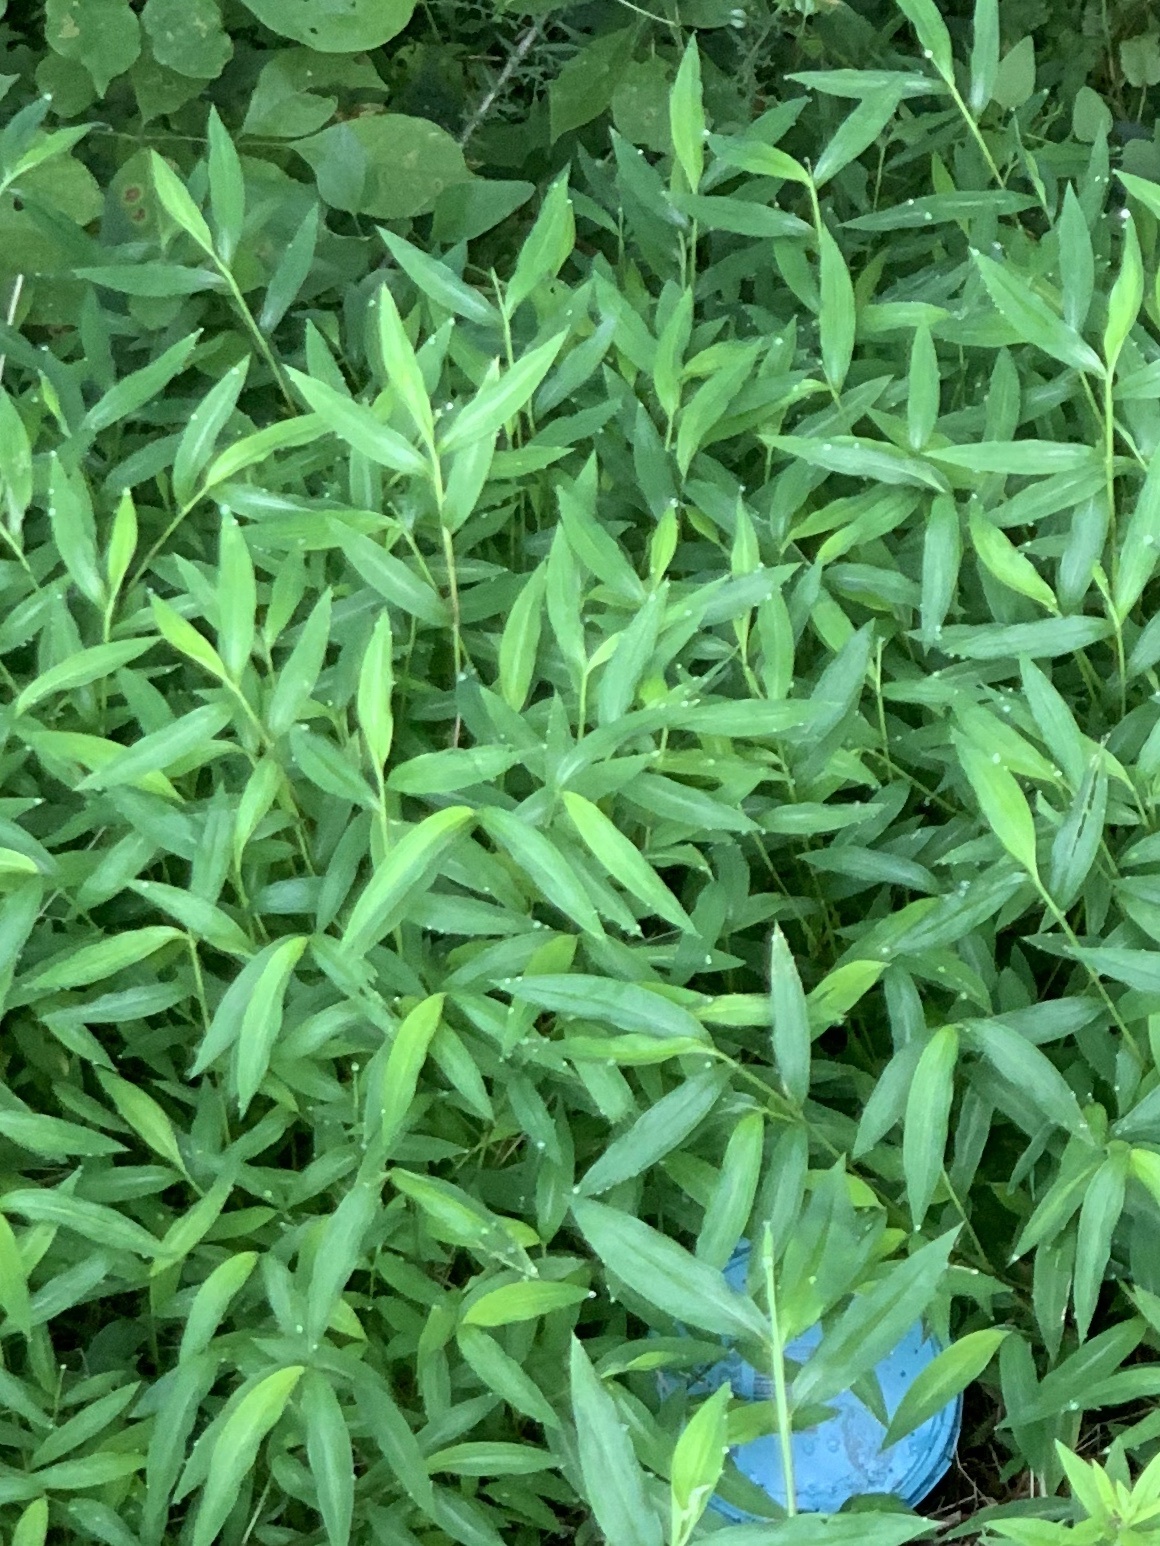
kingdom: Plantae
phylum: Tracheophyta
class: Liliopsida
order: Poales
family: Poaceae
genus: Microstegium
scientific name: Microstegium vimineum
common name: Japanese stiltgrass
